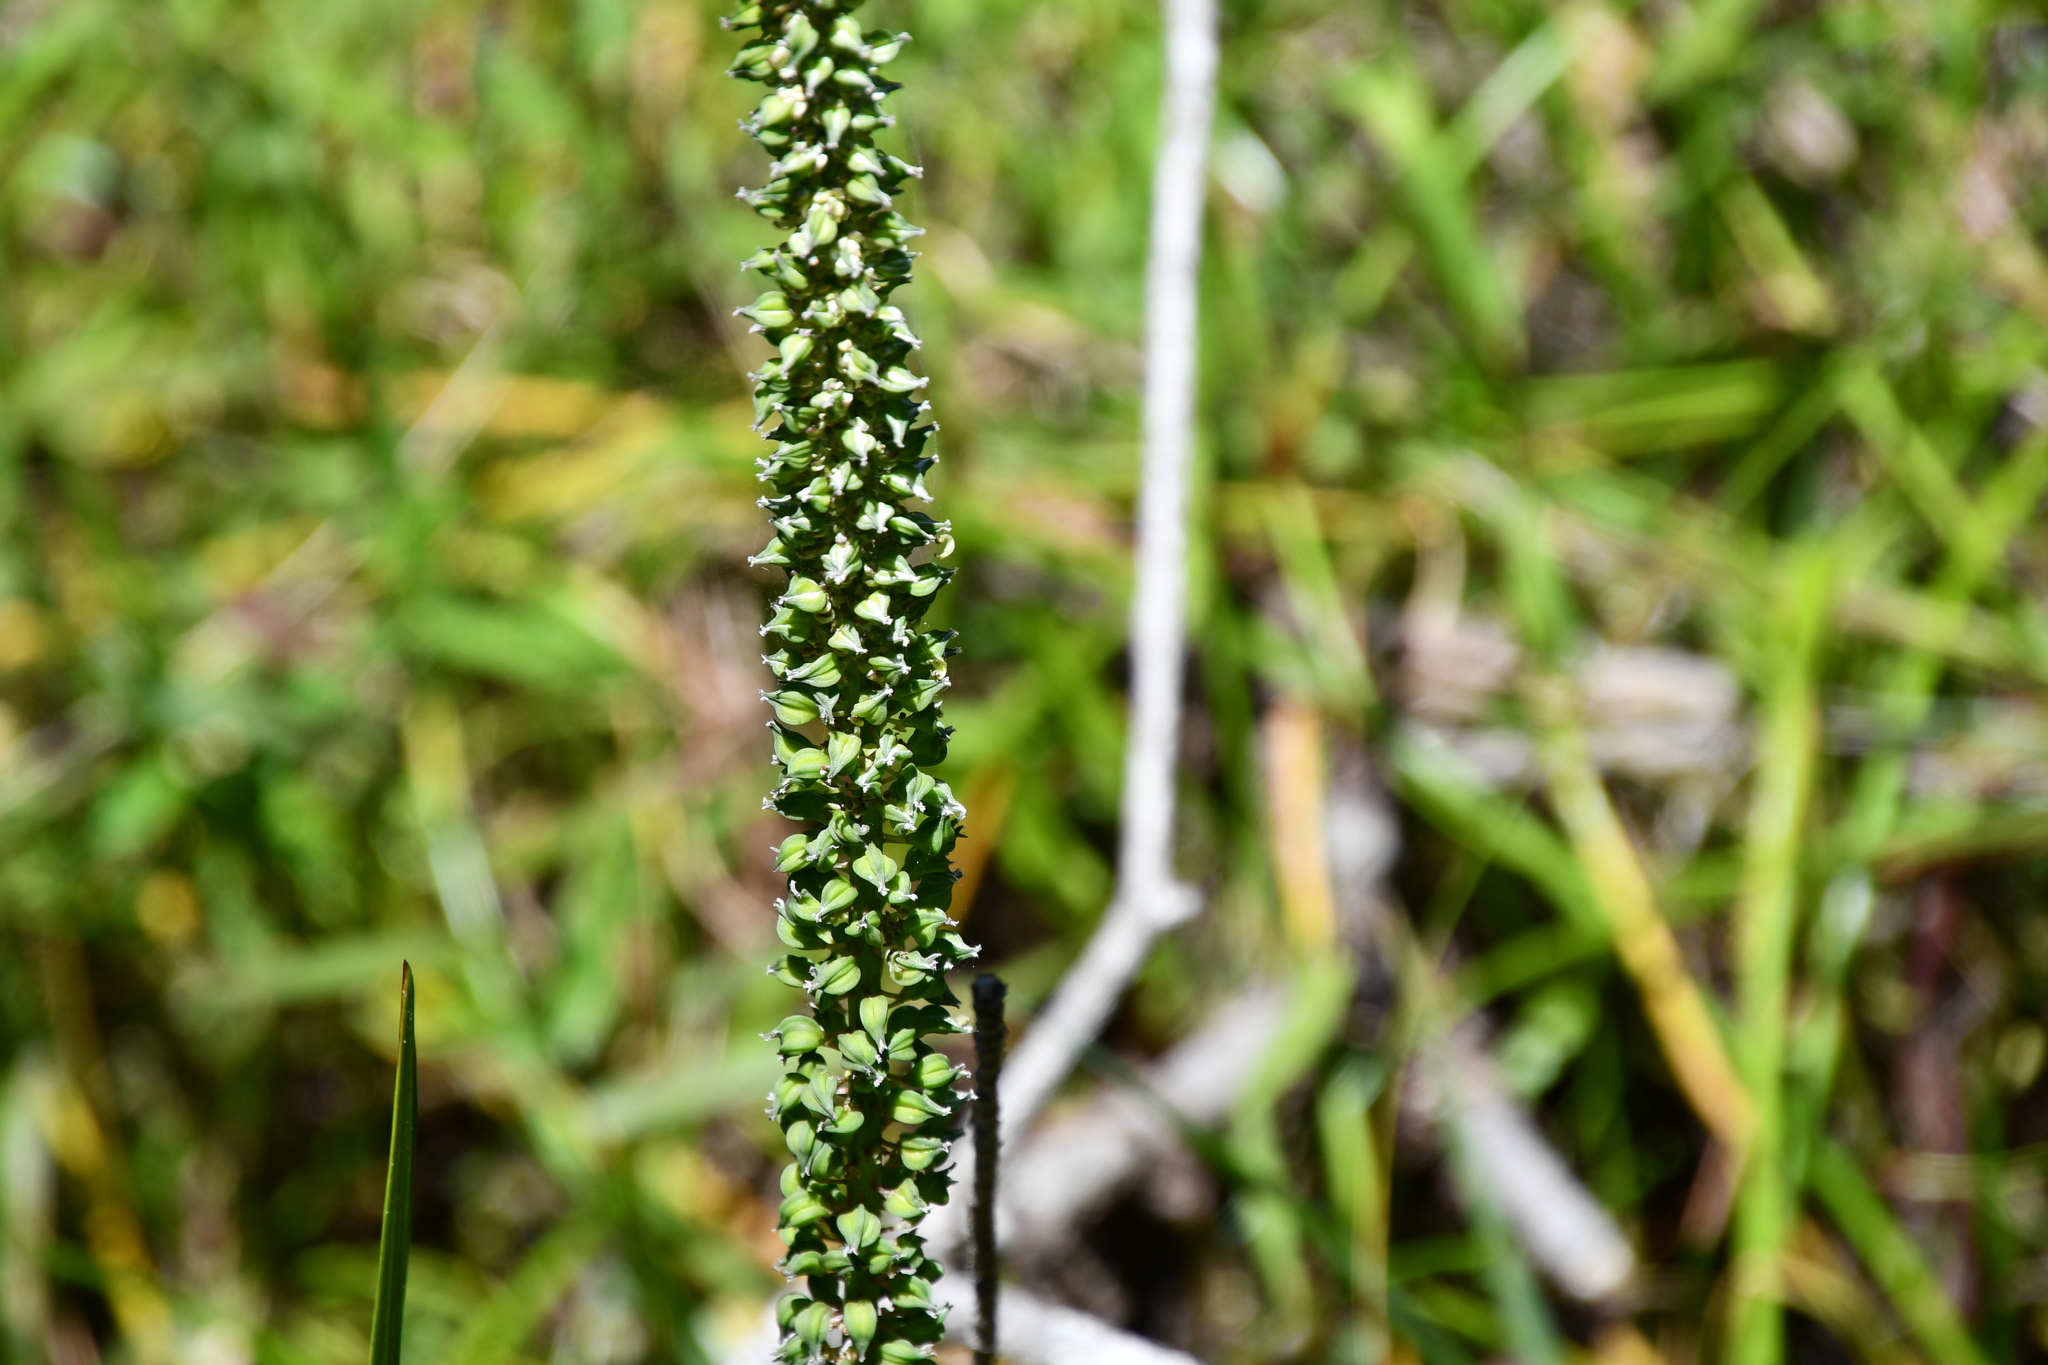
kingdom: Plantae
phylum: Tracheophyta
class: Liliopsida
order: Alismatales
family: Juncaginaceae
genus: Cycnogeton
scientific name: Cycnogeton procerum
